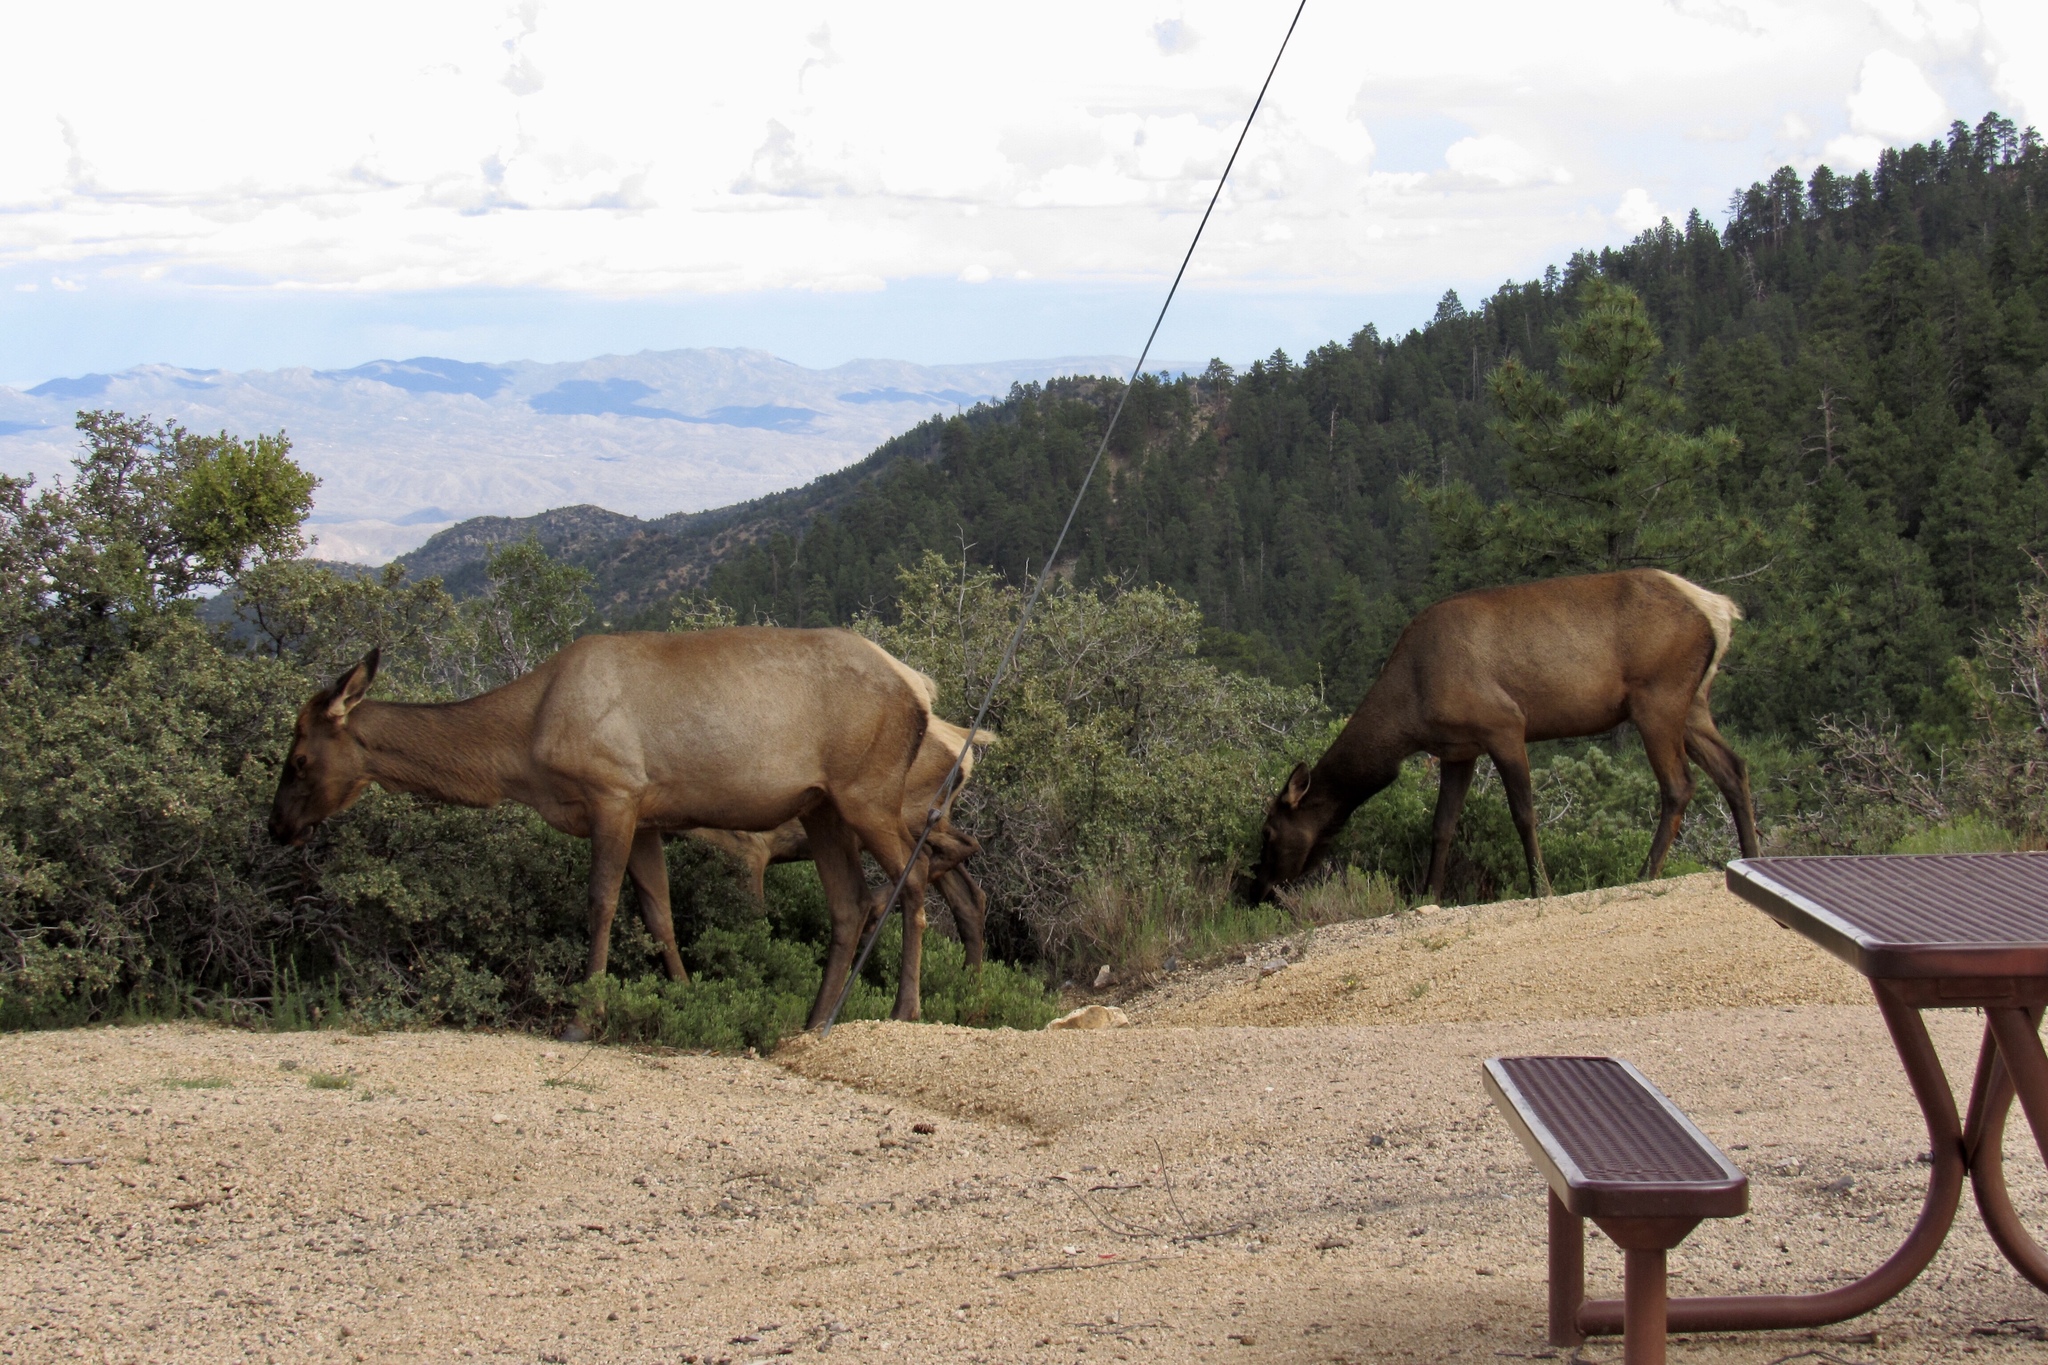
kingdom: Animalia
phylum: Chordata
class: Mammalia
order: Artiodactyla
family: Cervidae
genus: Cervus
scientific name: Cervus elaphus
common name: Red deer
